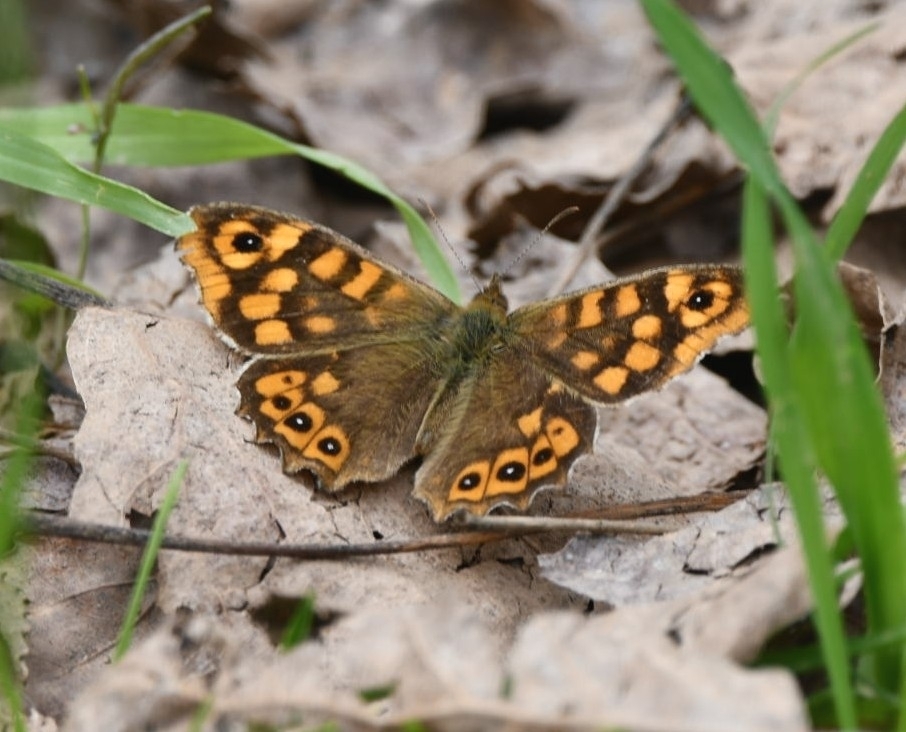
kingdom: Animalia
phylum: Arthropoda
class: Insecta
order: Lepidoptera
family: Nymphalidae
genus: Pararge
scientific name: Pararge aegeria
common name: Speckled wood
